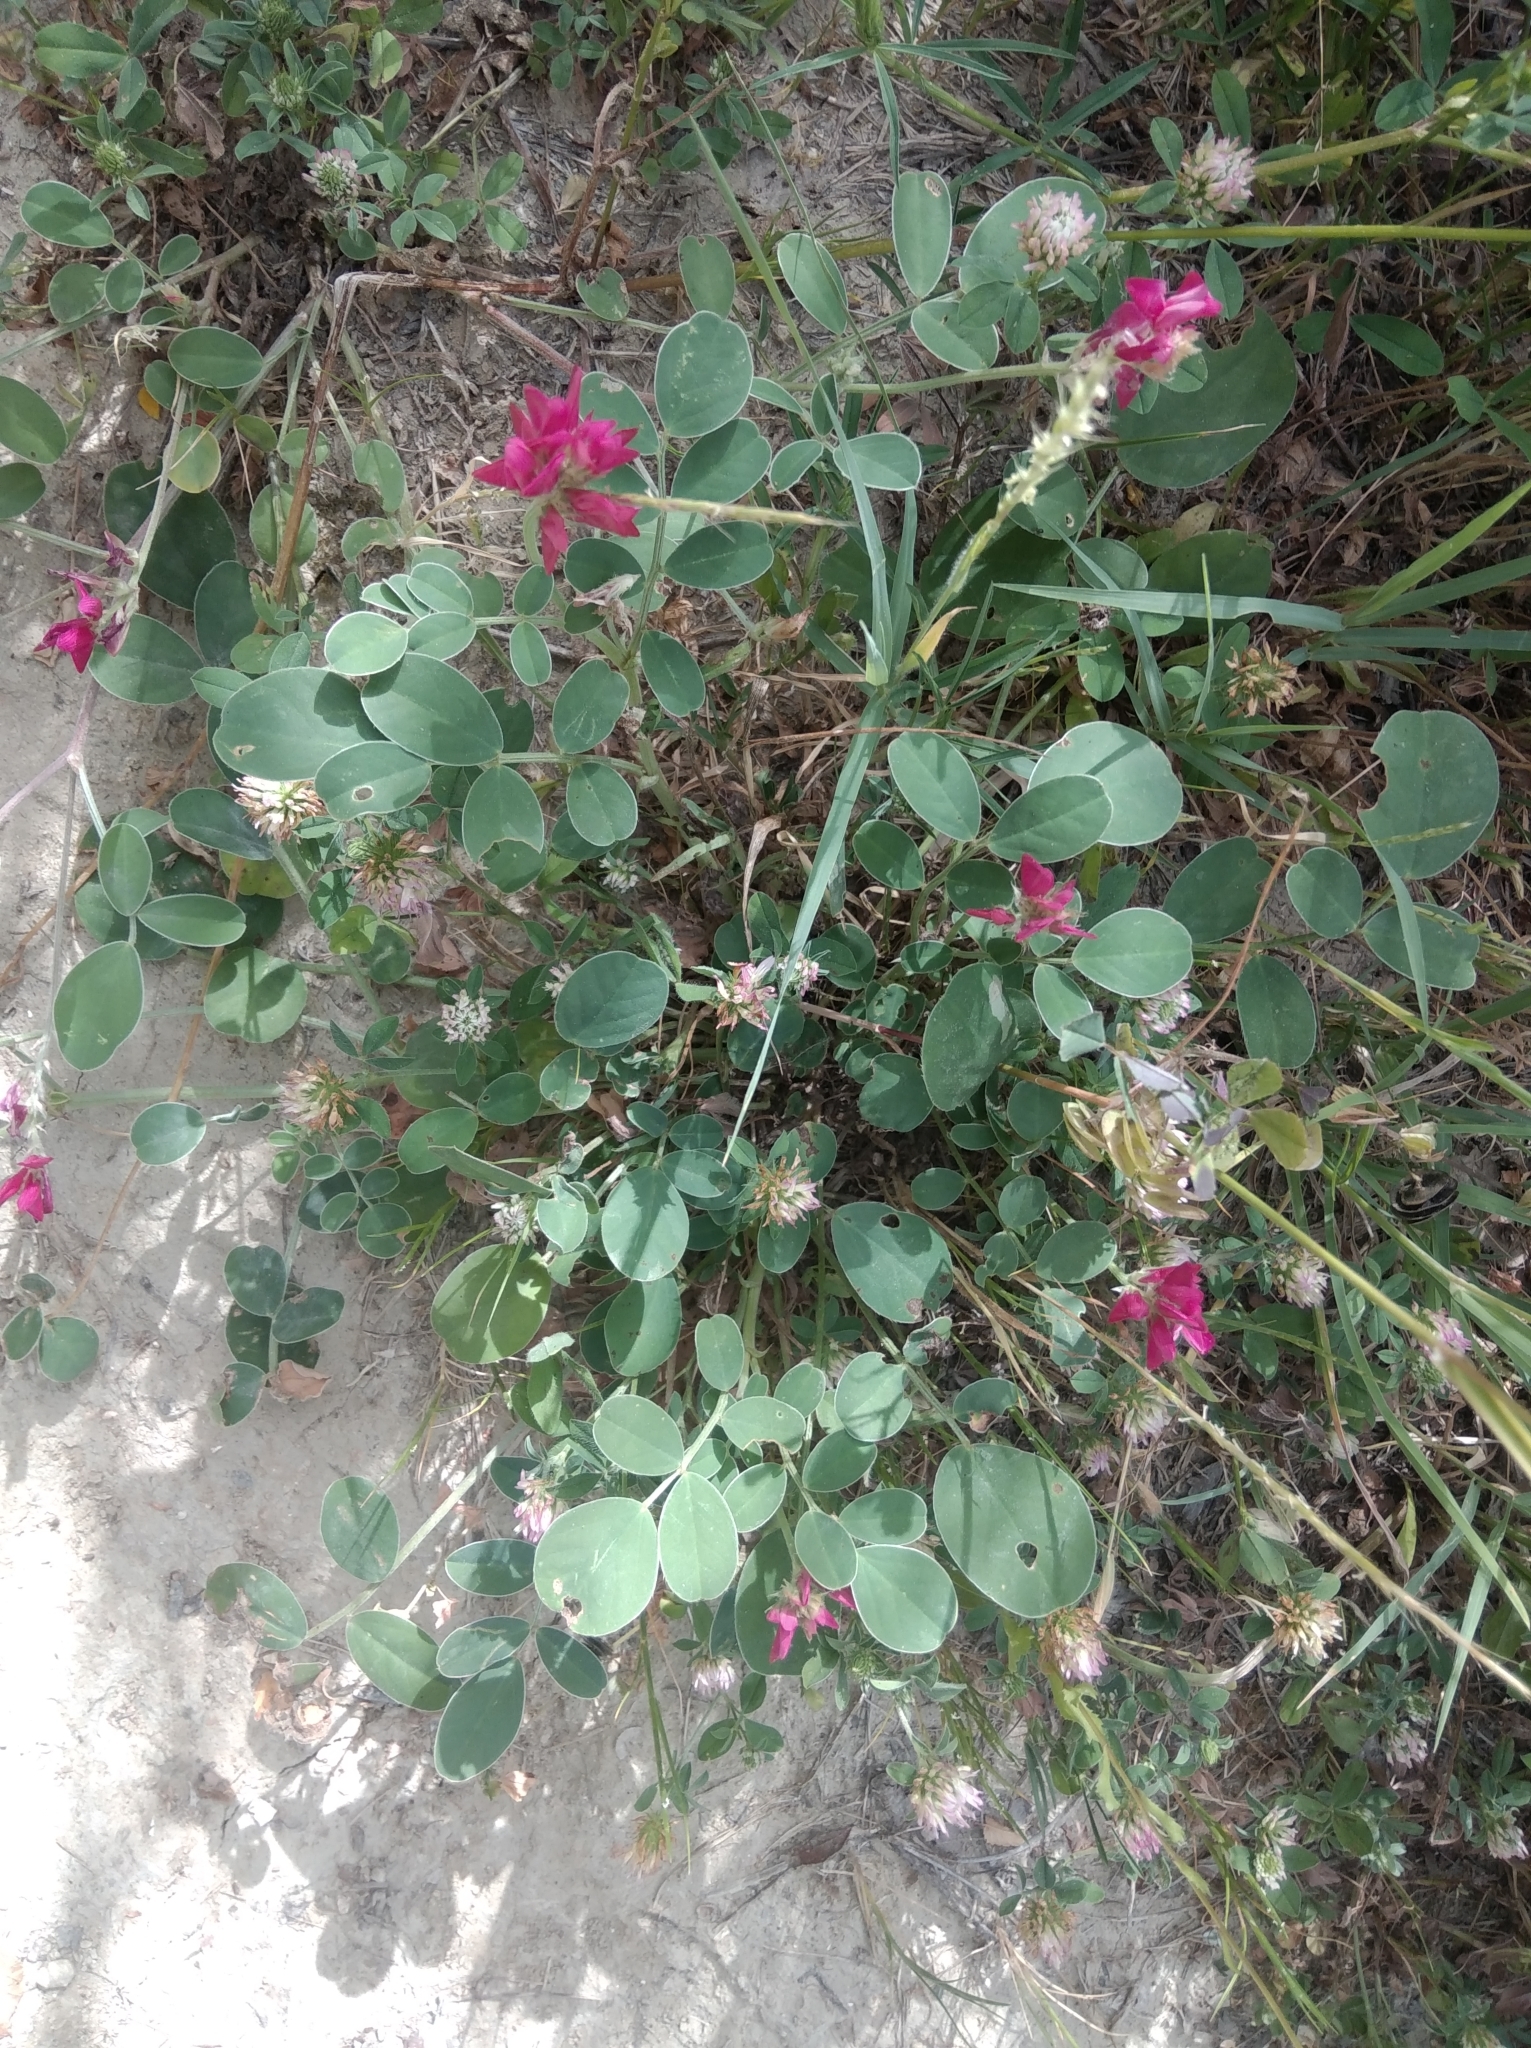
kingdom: Plantae
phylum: Tracheophyta
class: Magnoliopsida
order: Fabales
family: Fabaceae
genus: Sulla
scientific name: Sulla coronaria
